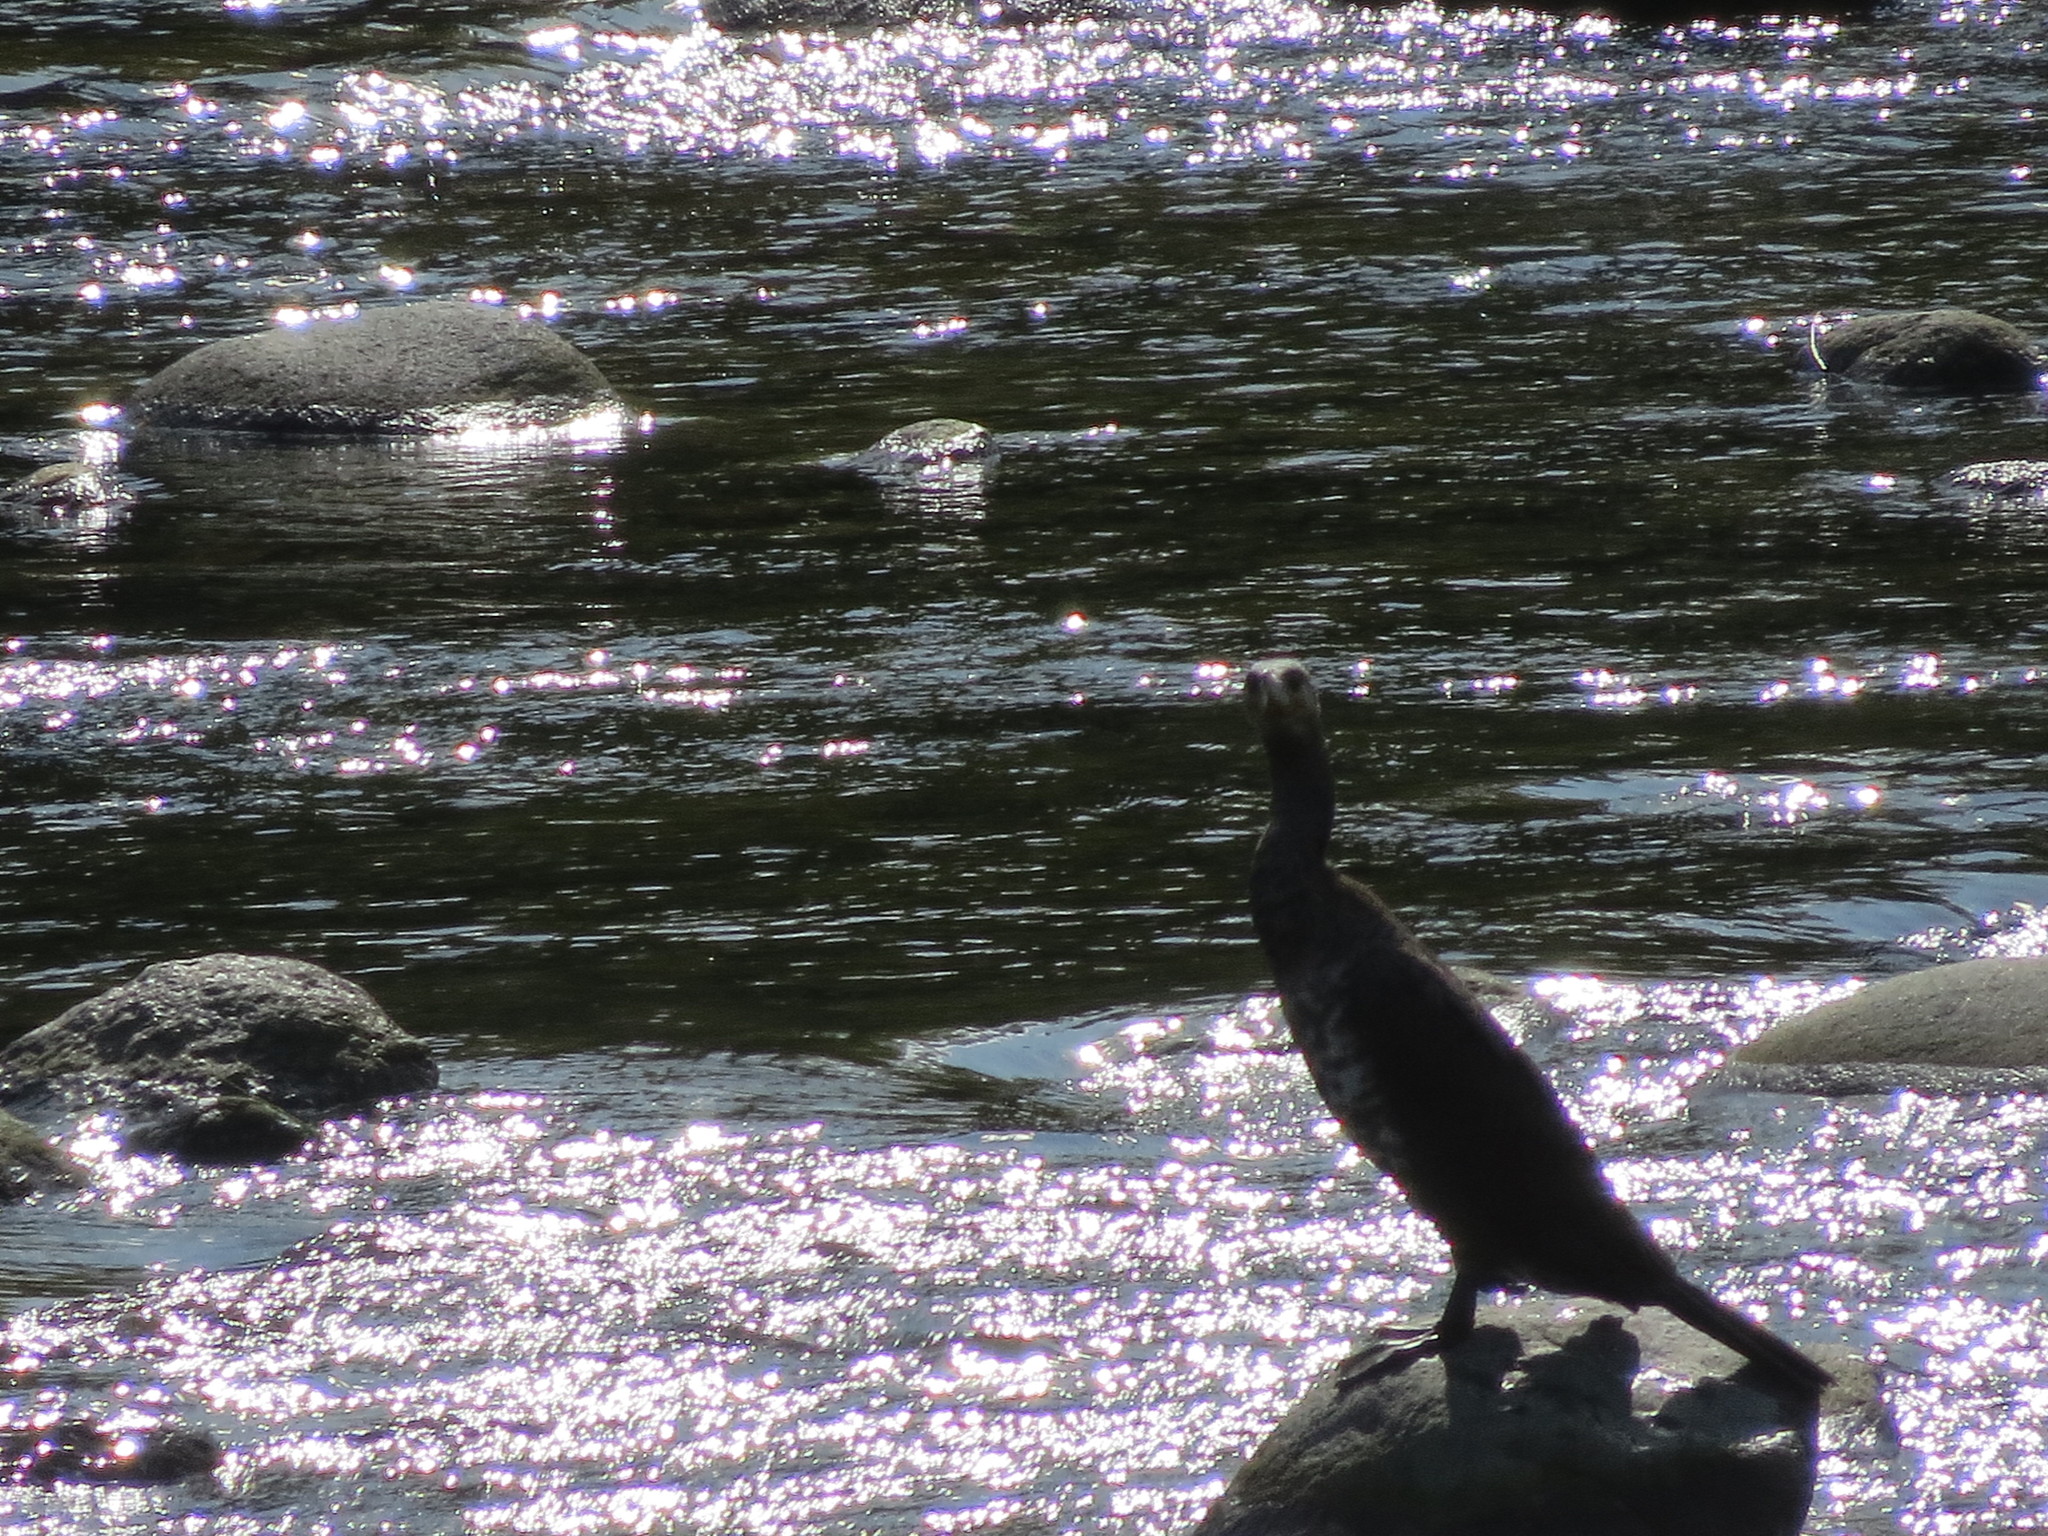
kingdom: Animalia
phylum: Chordata
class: Aves
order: Suliformes
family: Phalacrocoracidae
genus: Phalacrocorax
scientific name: Phalacrocorax carbo
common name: Great cormorant
